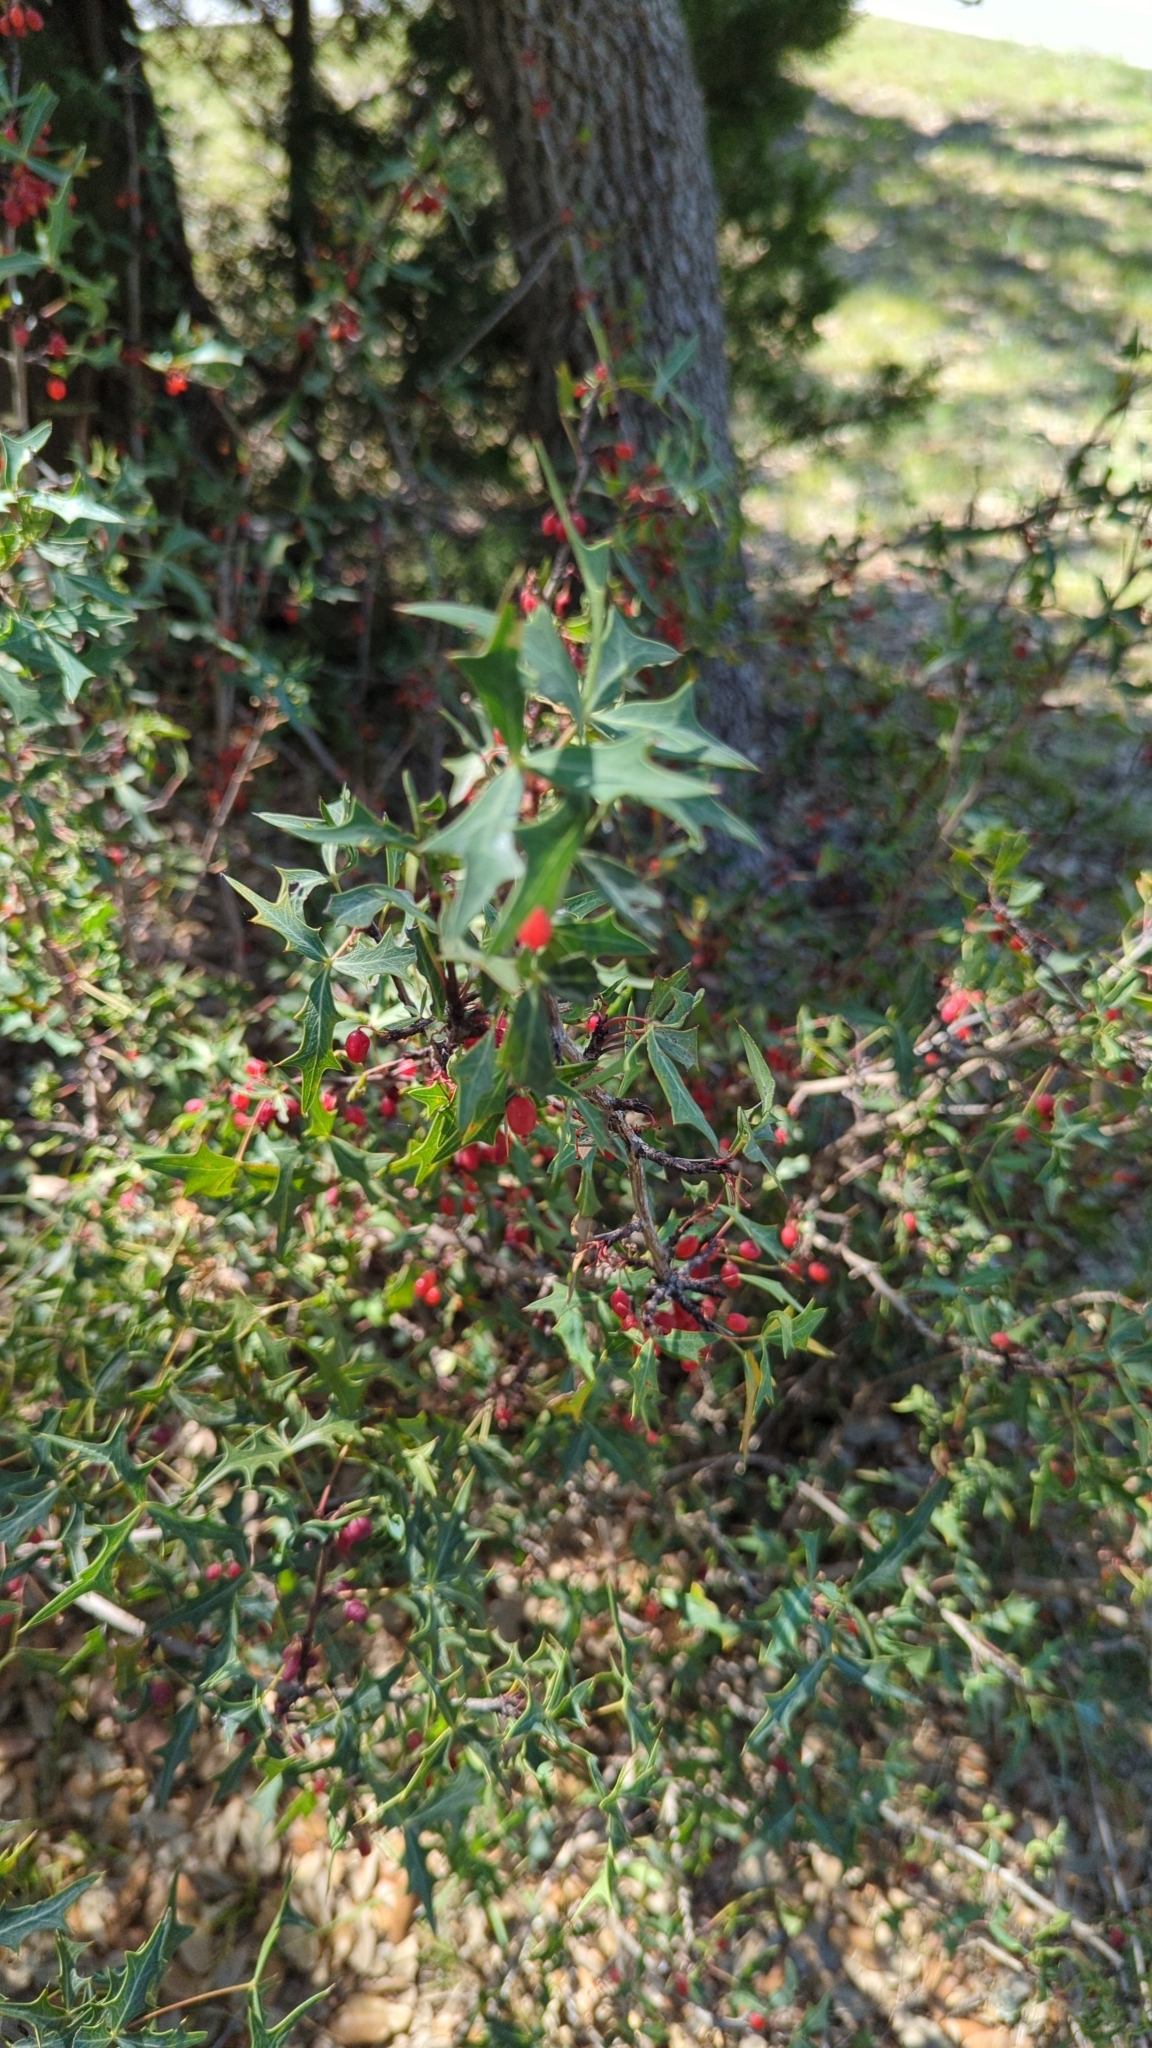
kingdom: Plantae
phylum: Tracheophyta
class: Magnoliopsida
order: Ranunculales
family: Berberidaceae
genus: Alloberberis
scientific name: Alloberberis trifoliolata
